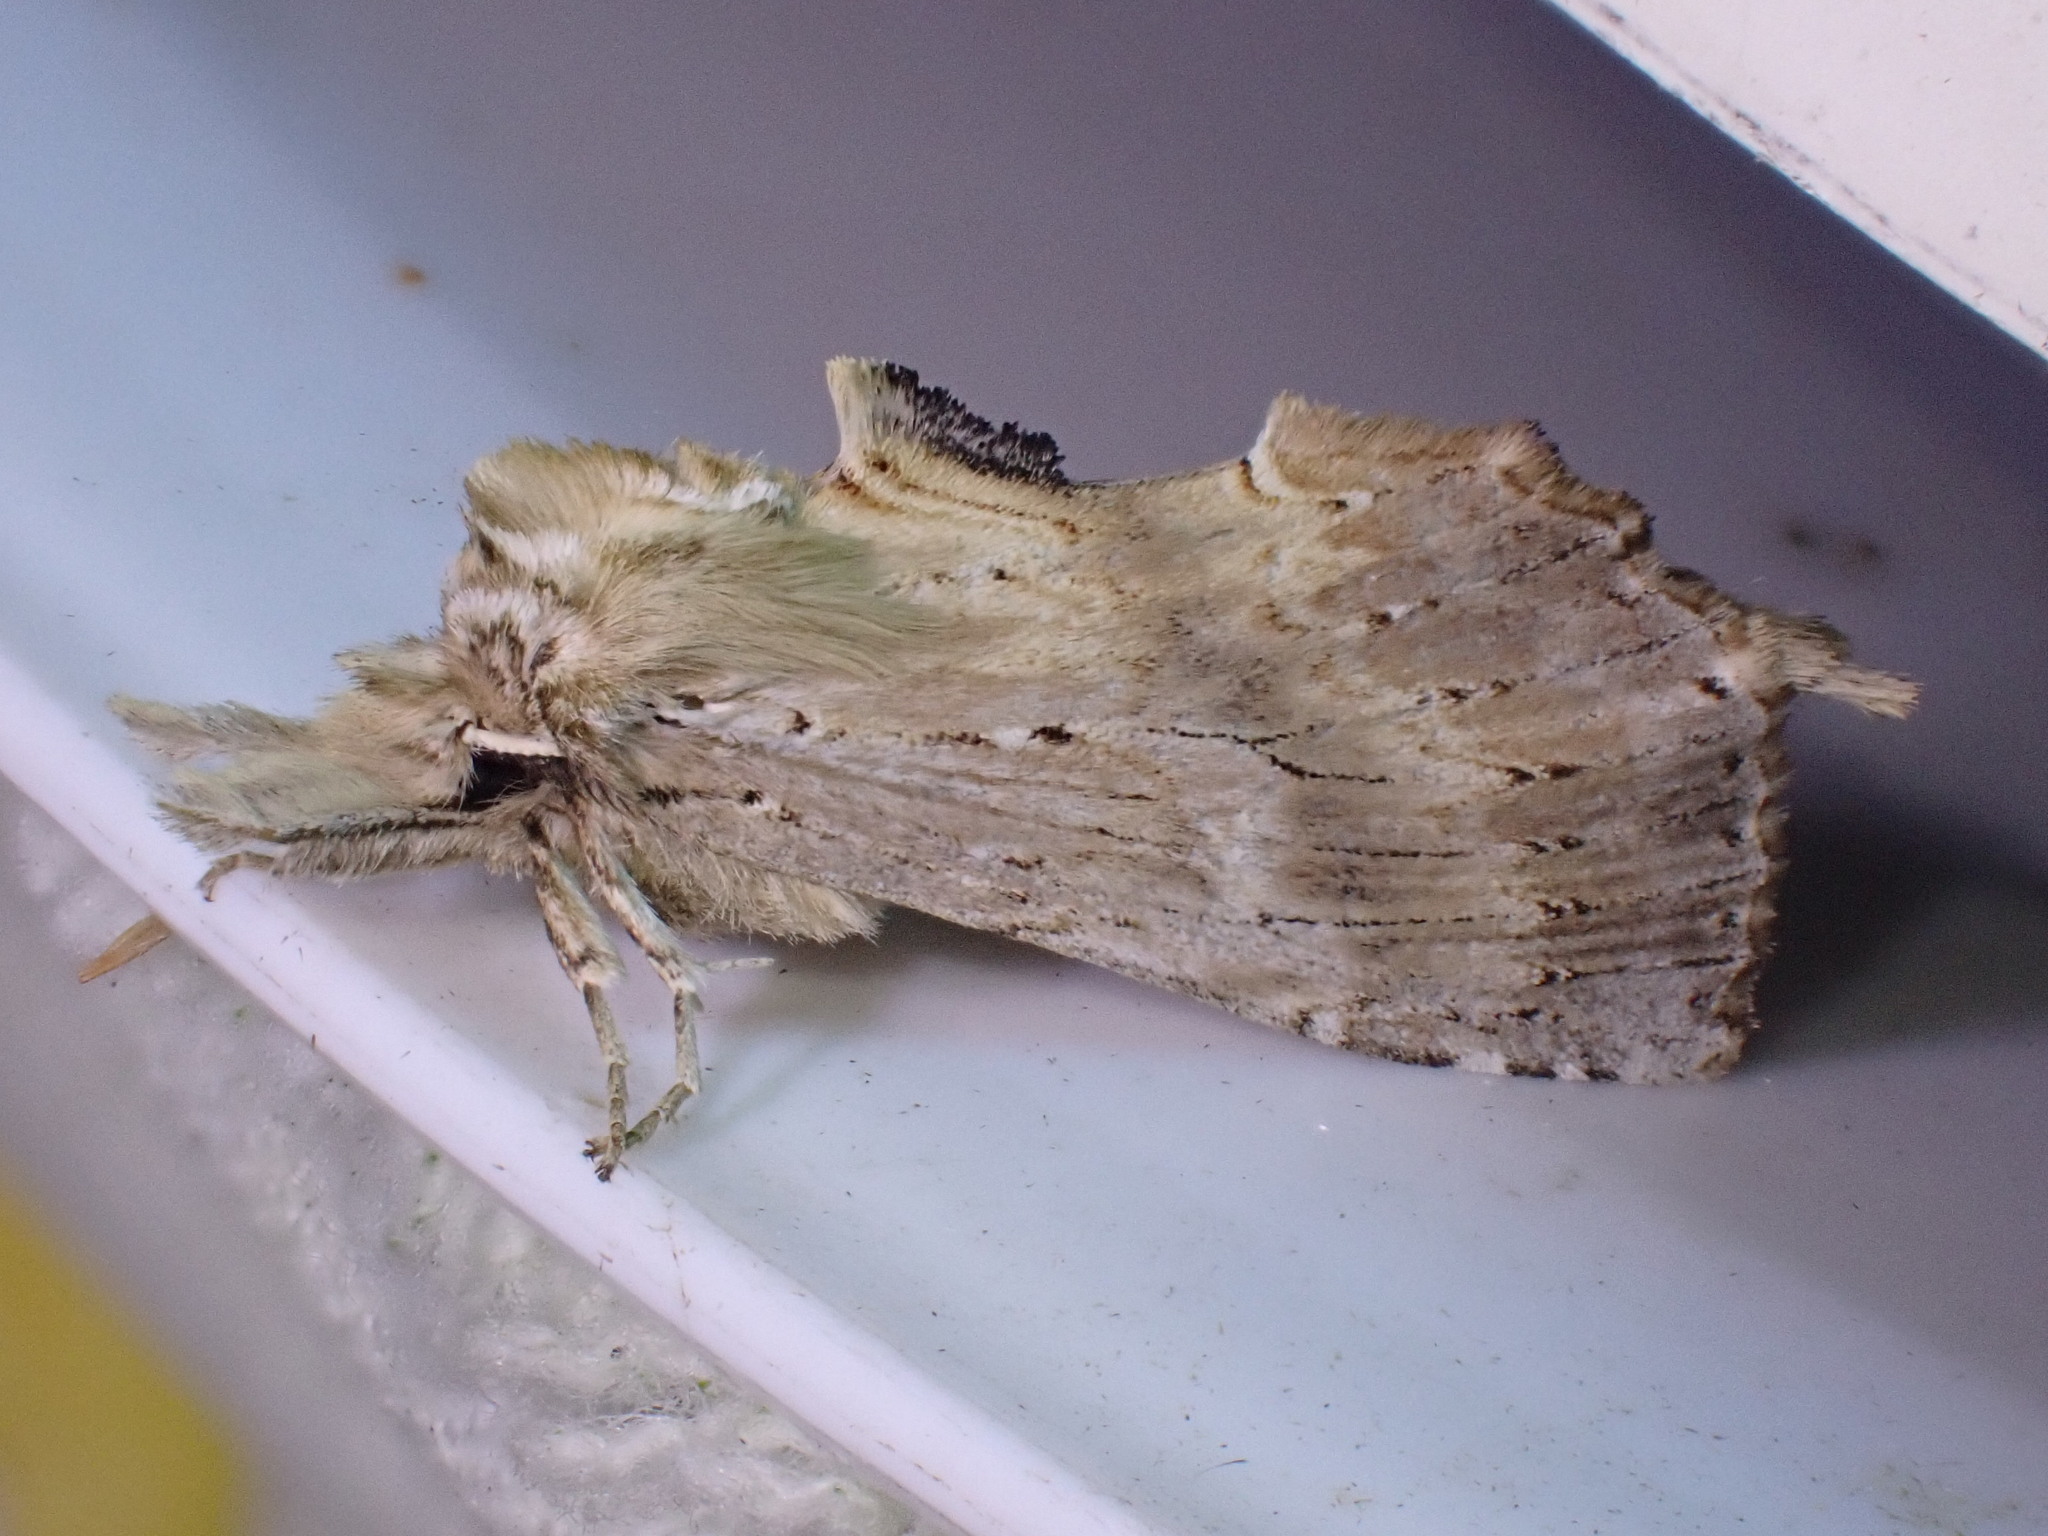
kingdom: Animalia
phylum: Arthropoda
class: Insecta
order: Lepidoptera
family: Notodontidae
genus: Pterostoma
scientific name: Pterostoma palpina
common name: Pale prominent
